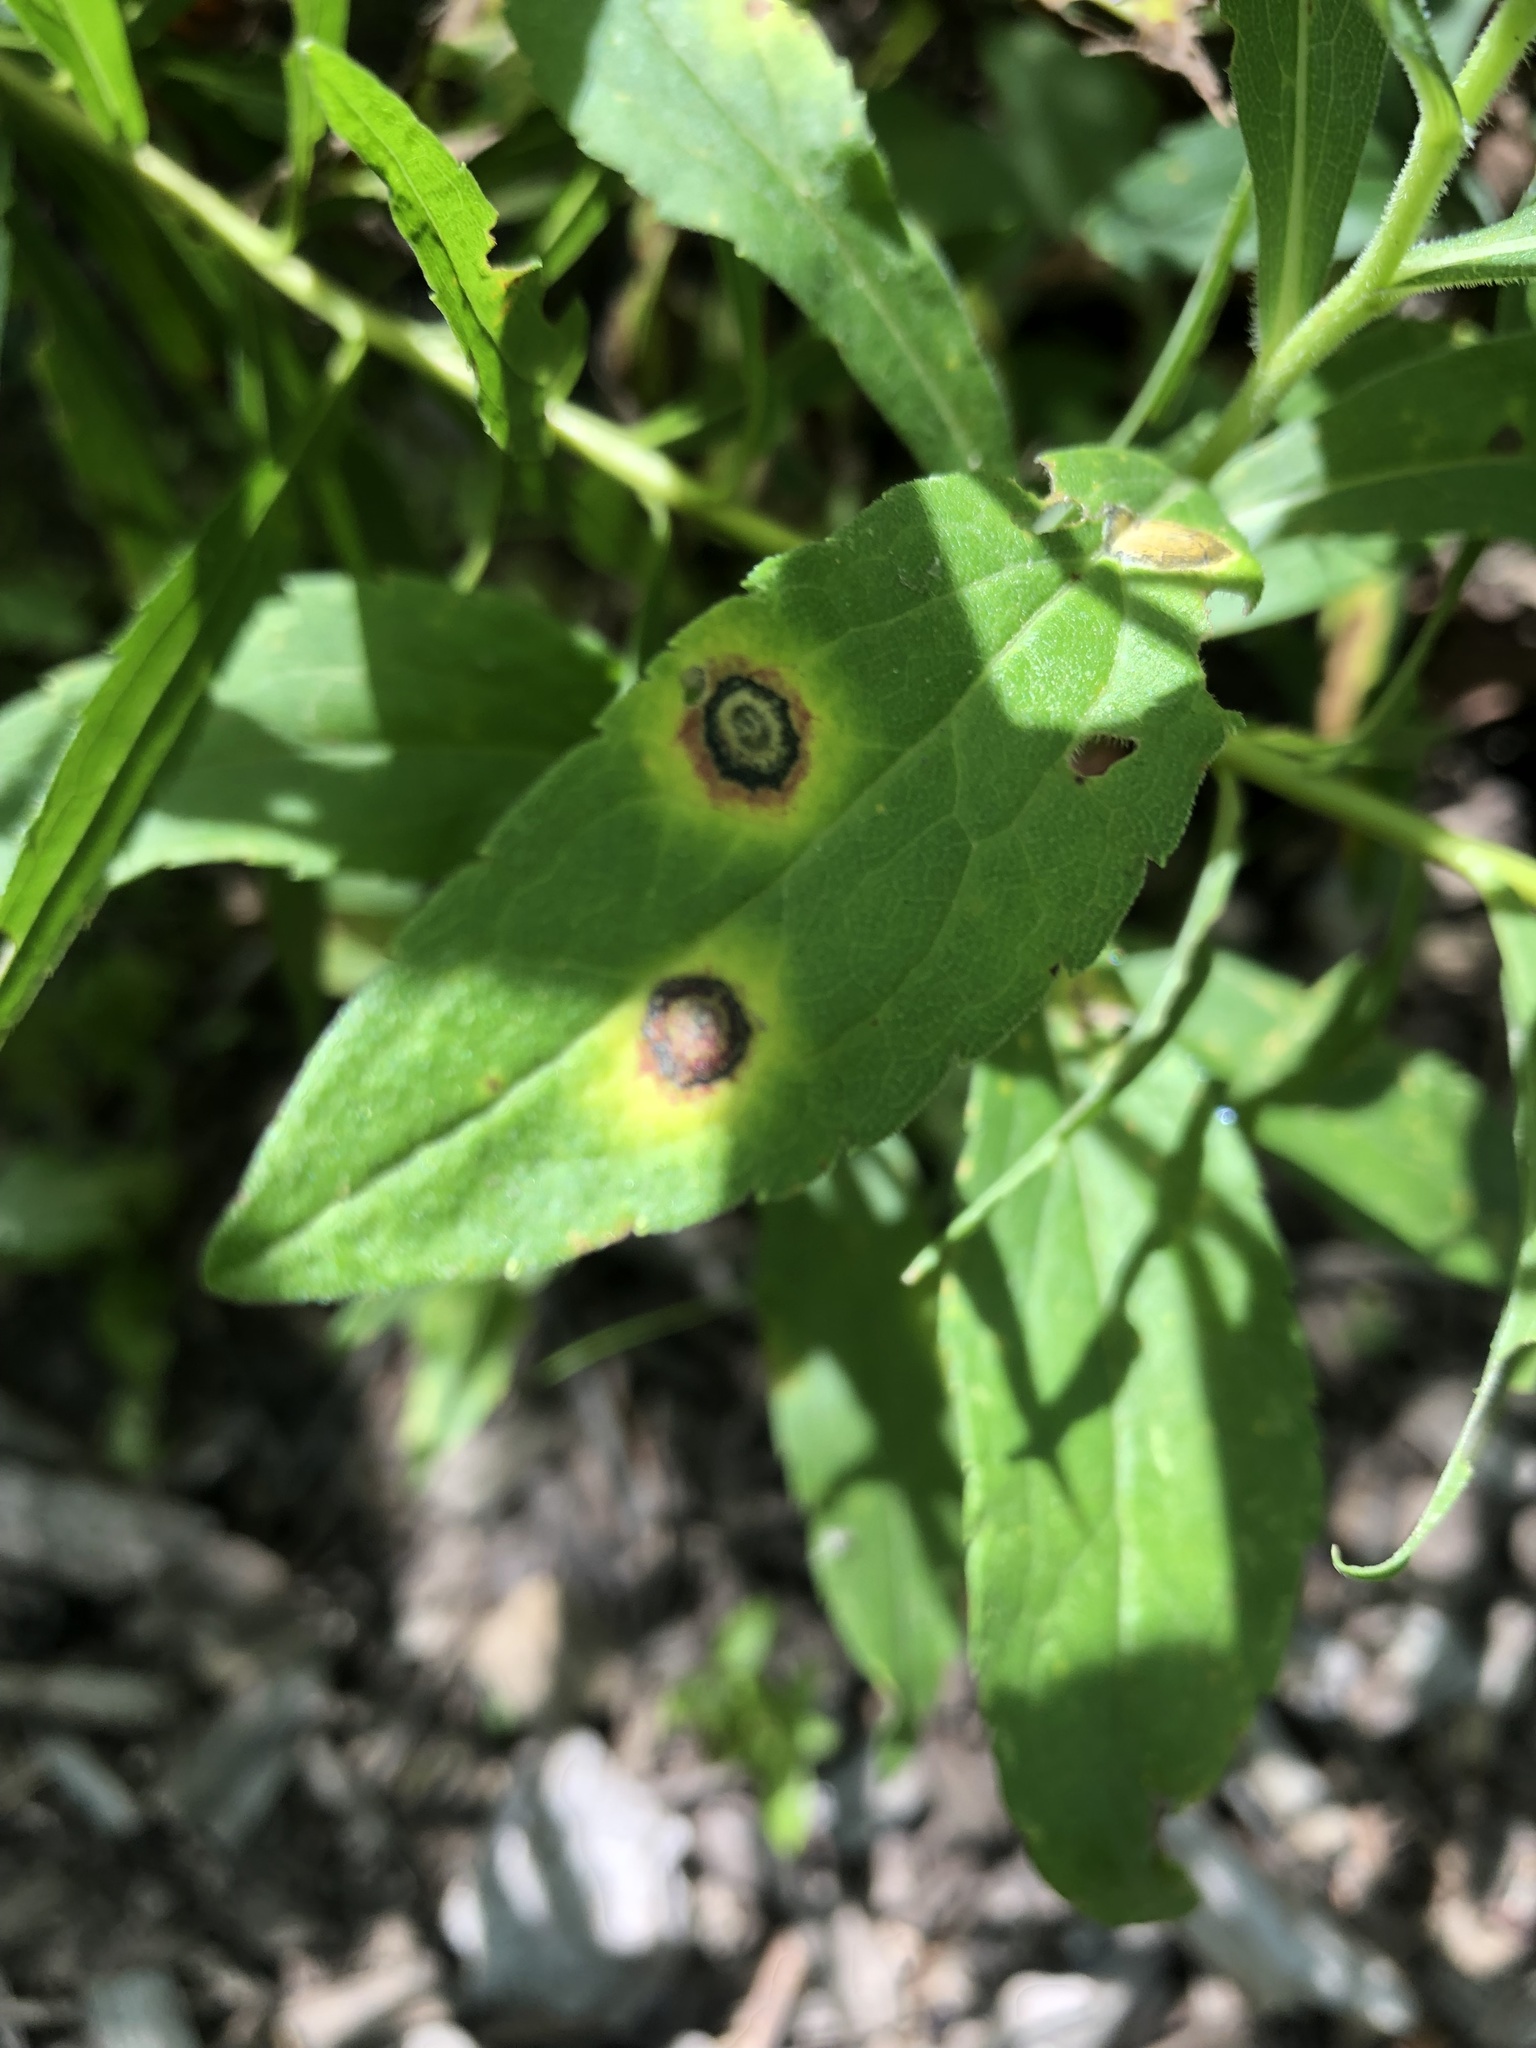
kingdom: Animalia
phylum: Arthropoda
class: Insecta
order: Diptera
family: Cecidomyiidae
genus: Asteromyia
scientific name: Asteromyia carbonifera
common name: Carbonifera goldenrod gall midge
